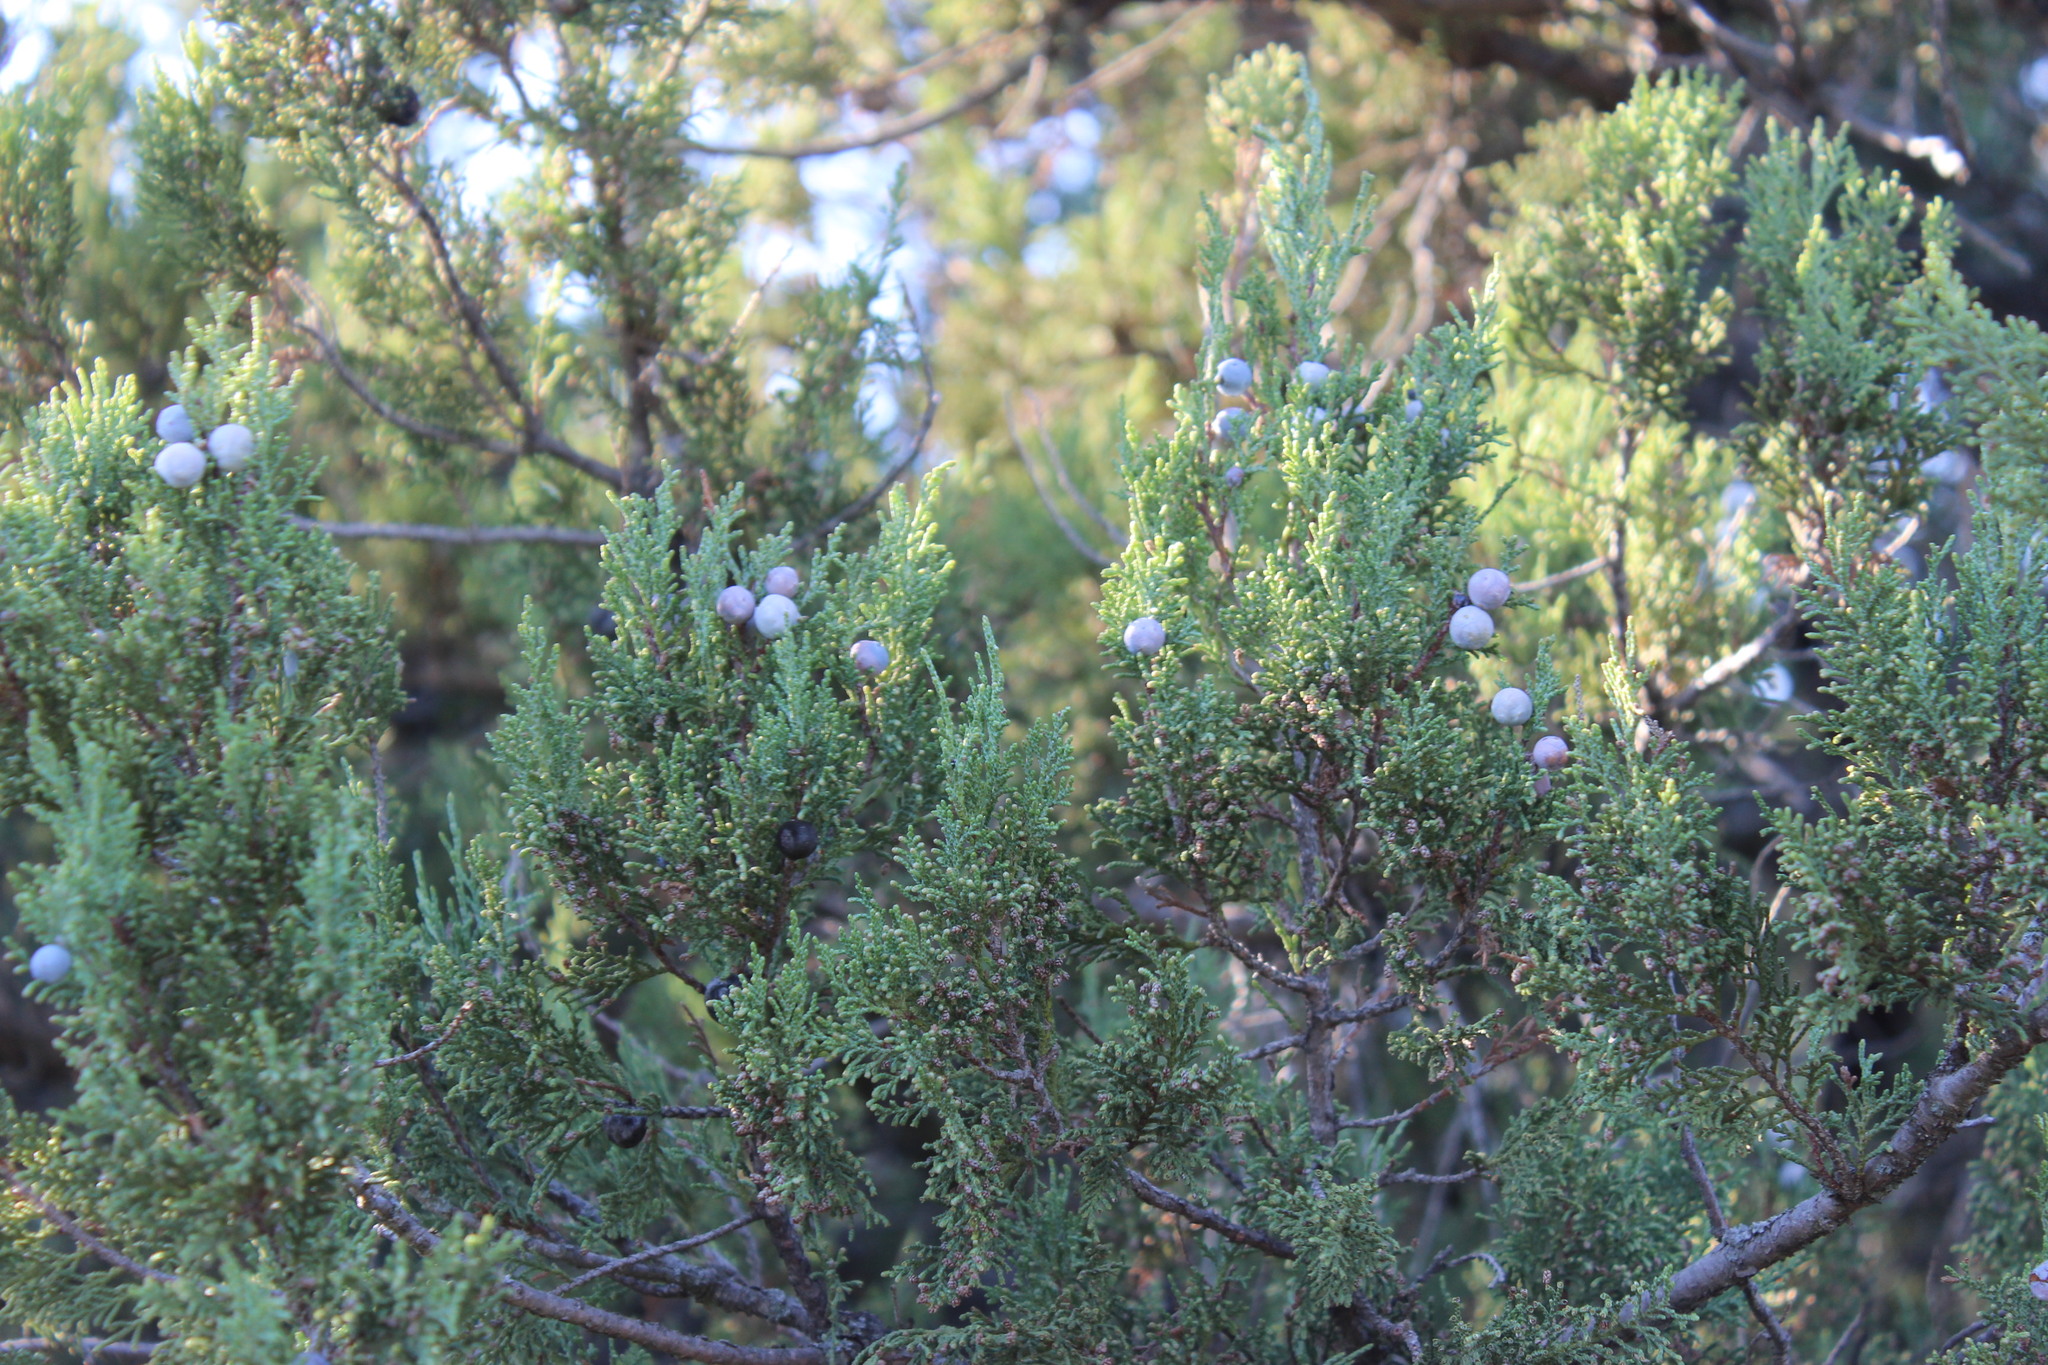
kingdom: Plantae
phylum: Tracheophyta
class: Pinopsida
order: Pinales
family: Cupressaceae
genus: Juniperus
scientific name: Juniperus excelsa
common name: Crimean juniper
